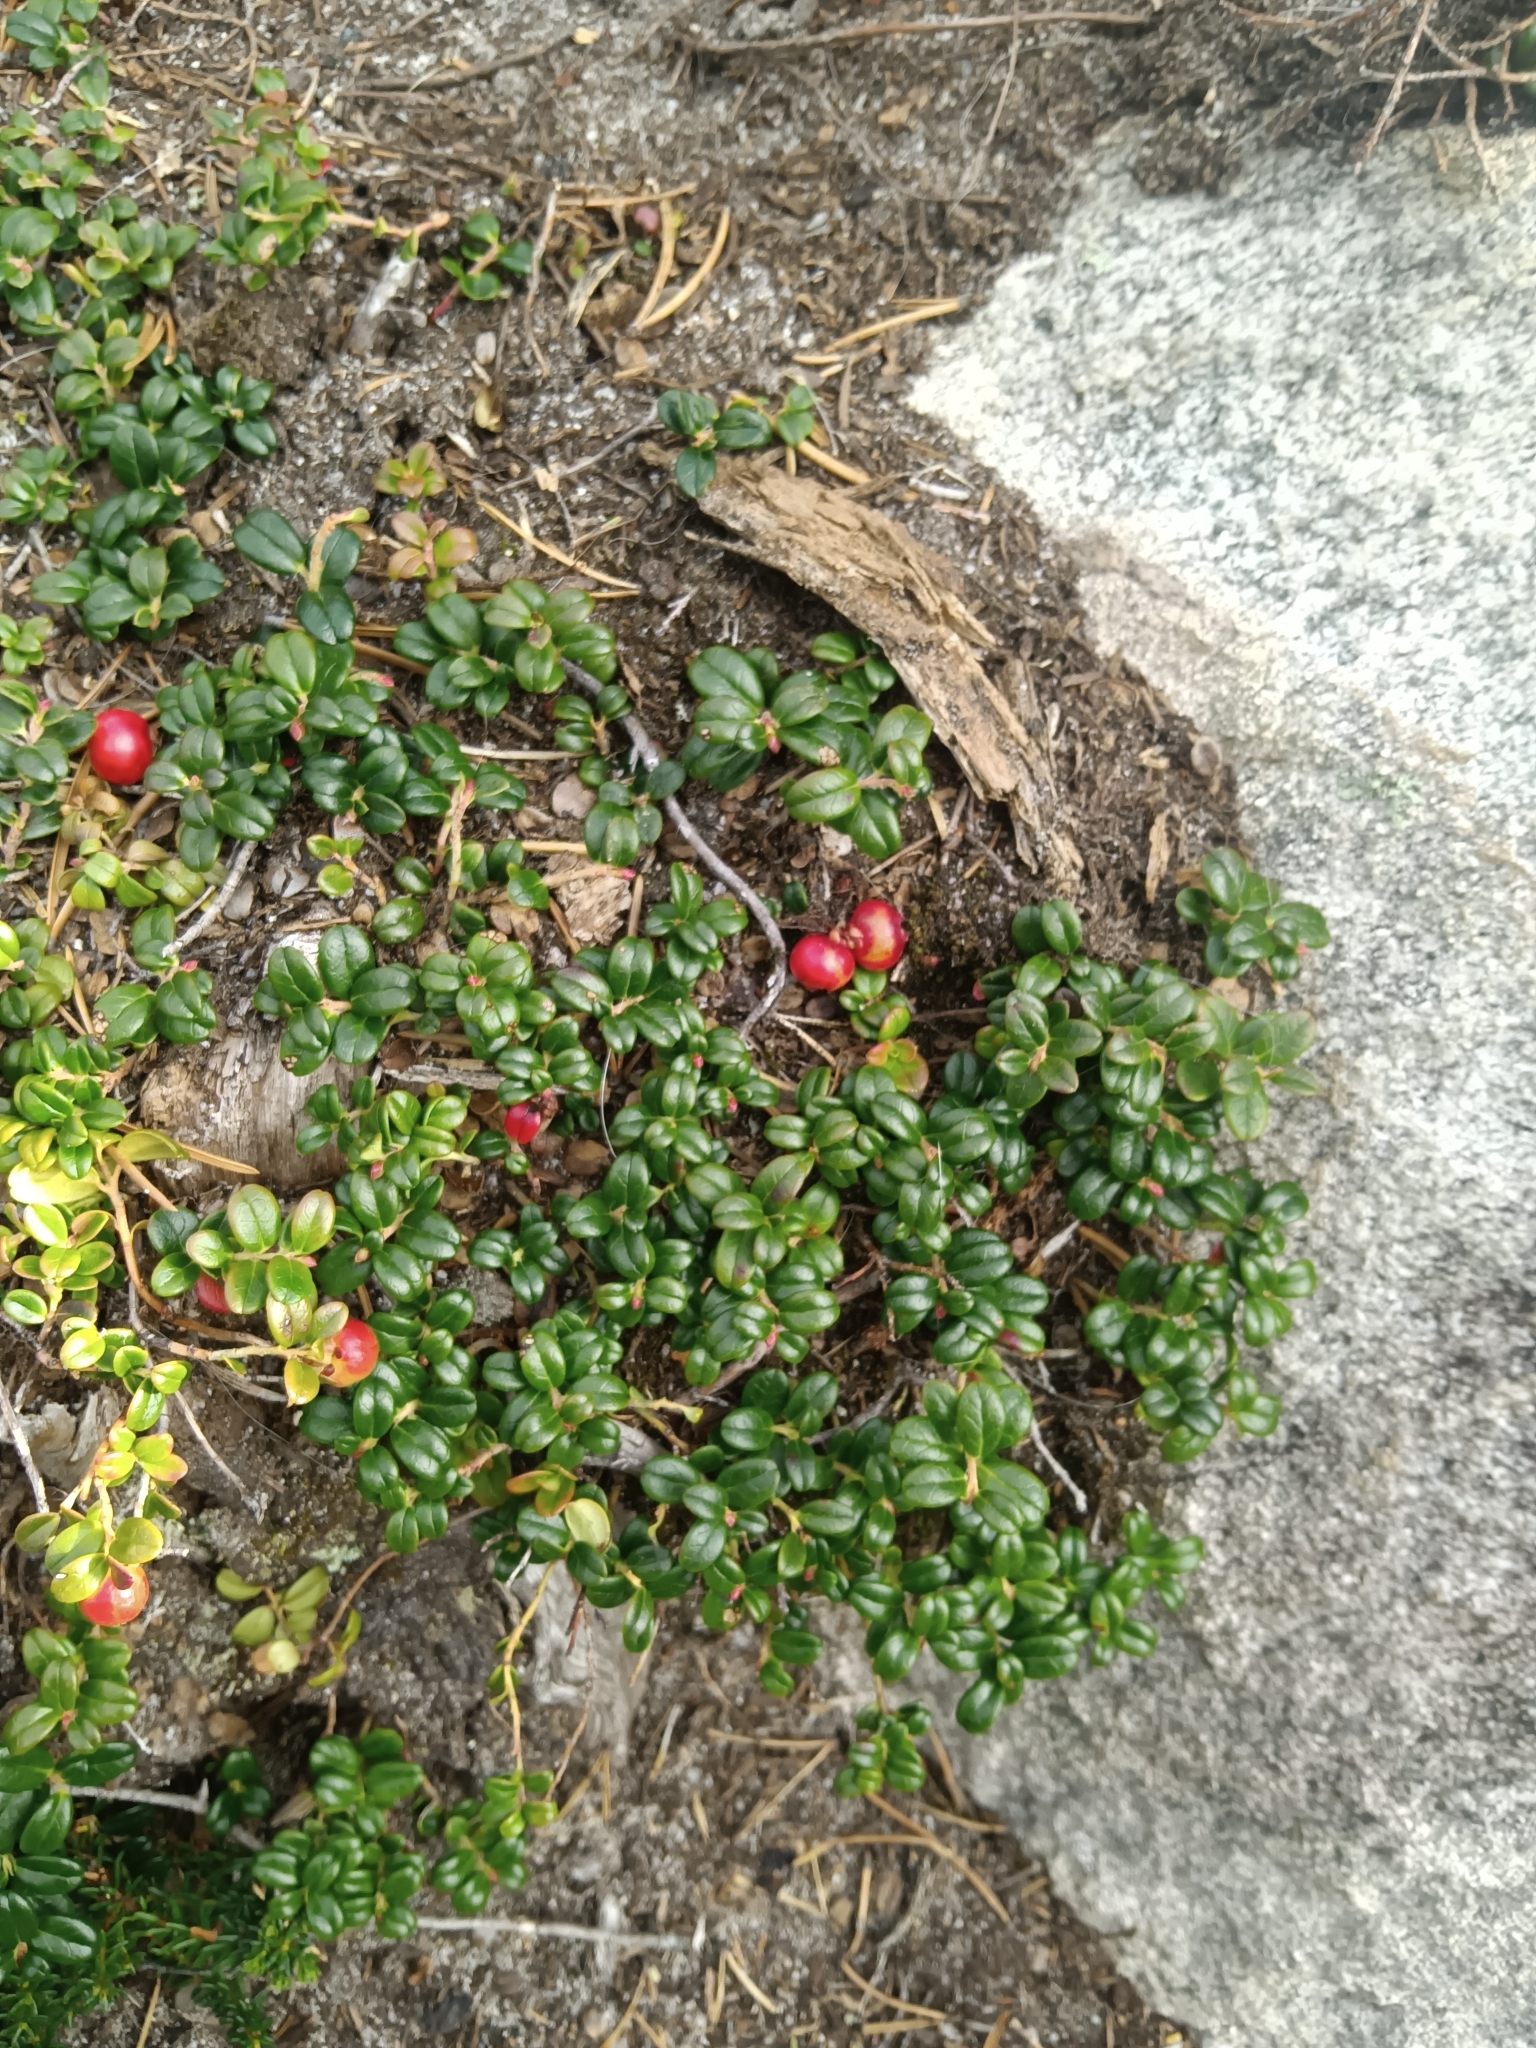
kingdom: Plantae
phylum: Tracheophyta
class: Magnoliopsida
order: Ericales
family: Ericaceae
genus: Vaccinium
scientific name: Vaccinium vitis-idaea
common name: Cowberry
